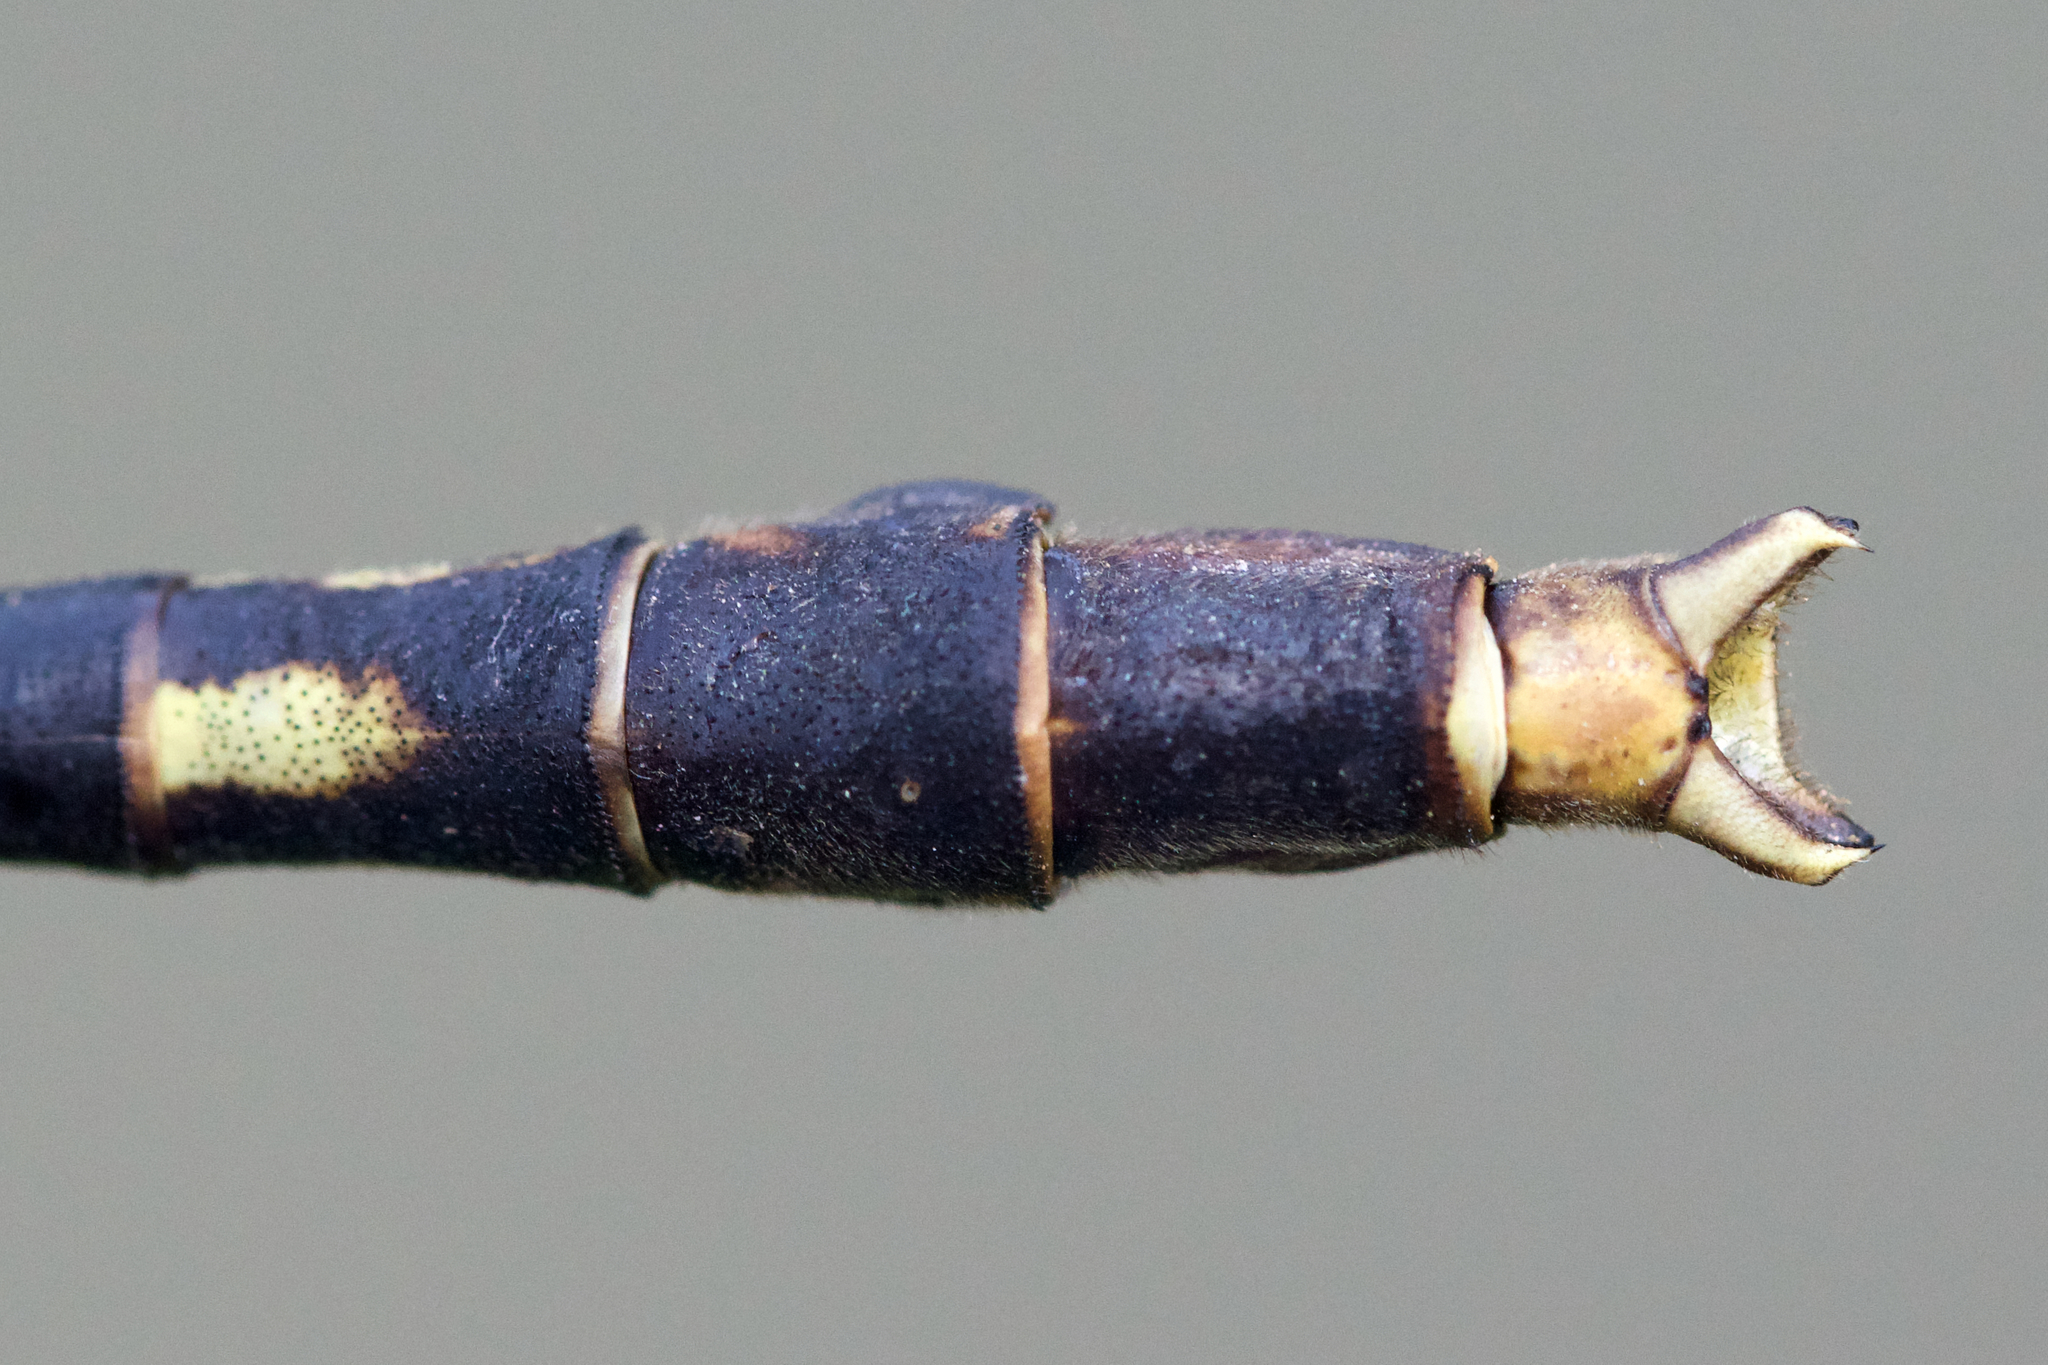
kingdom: Animalia
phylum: Arthropoda
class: Insecta
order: Odonata
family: Gomphidae
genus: Arigomphus
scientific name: Arigomphus villosipes
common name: Unicorn clubtail
